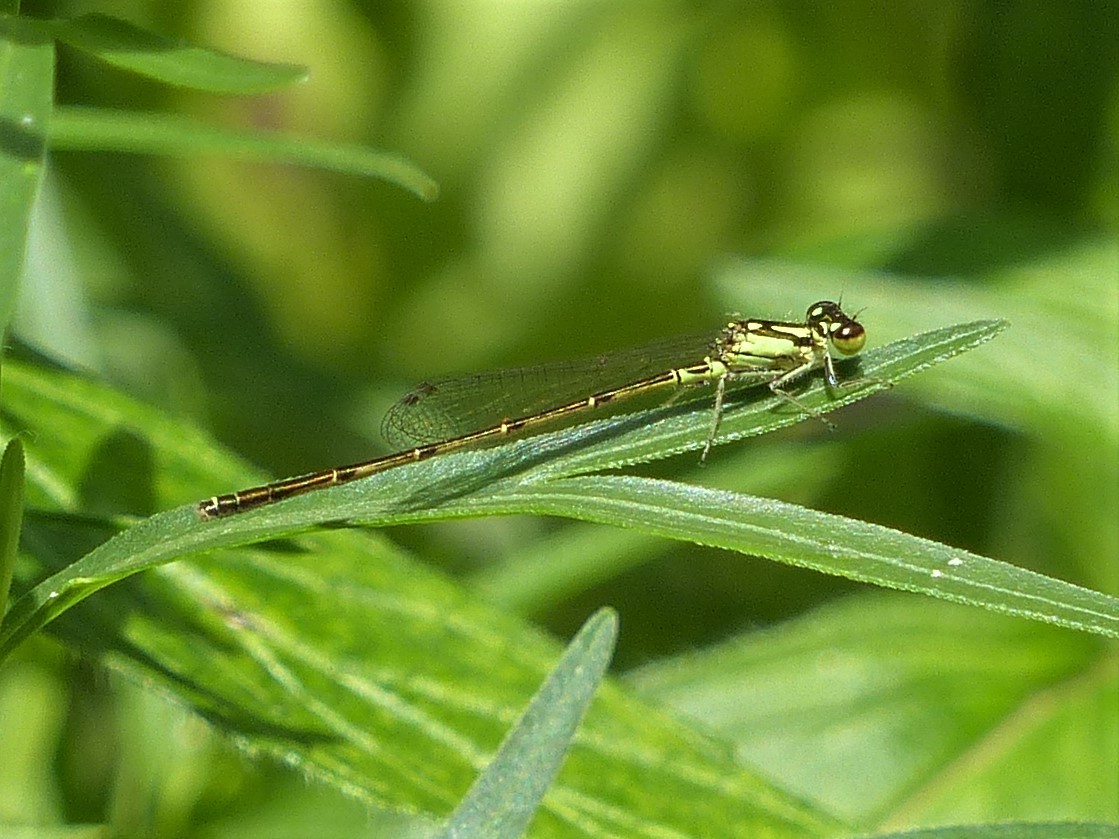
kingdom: Animalia
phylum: Arthropoda
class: Insecta
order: Odonata
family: Coenagrionidae
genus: Ischnura
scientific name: Ischnura posita
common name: Fragile forktail
